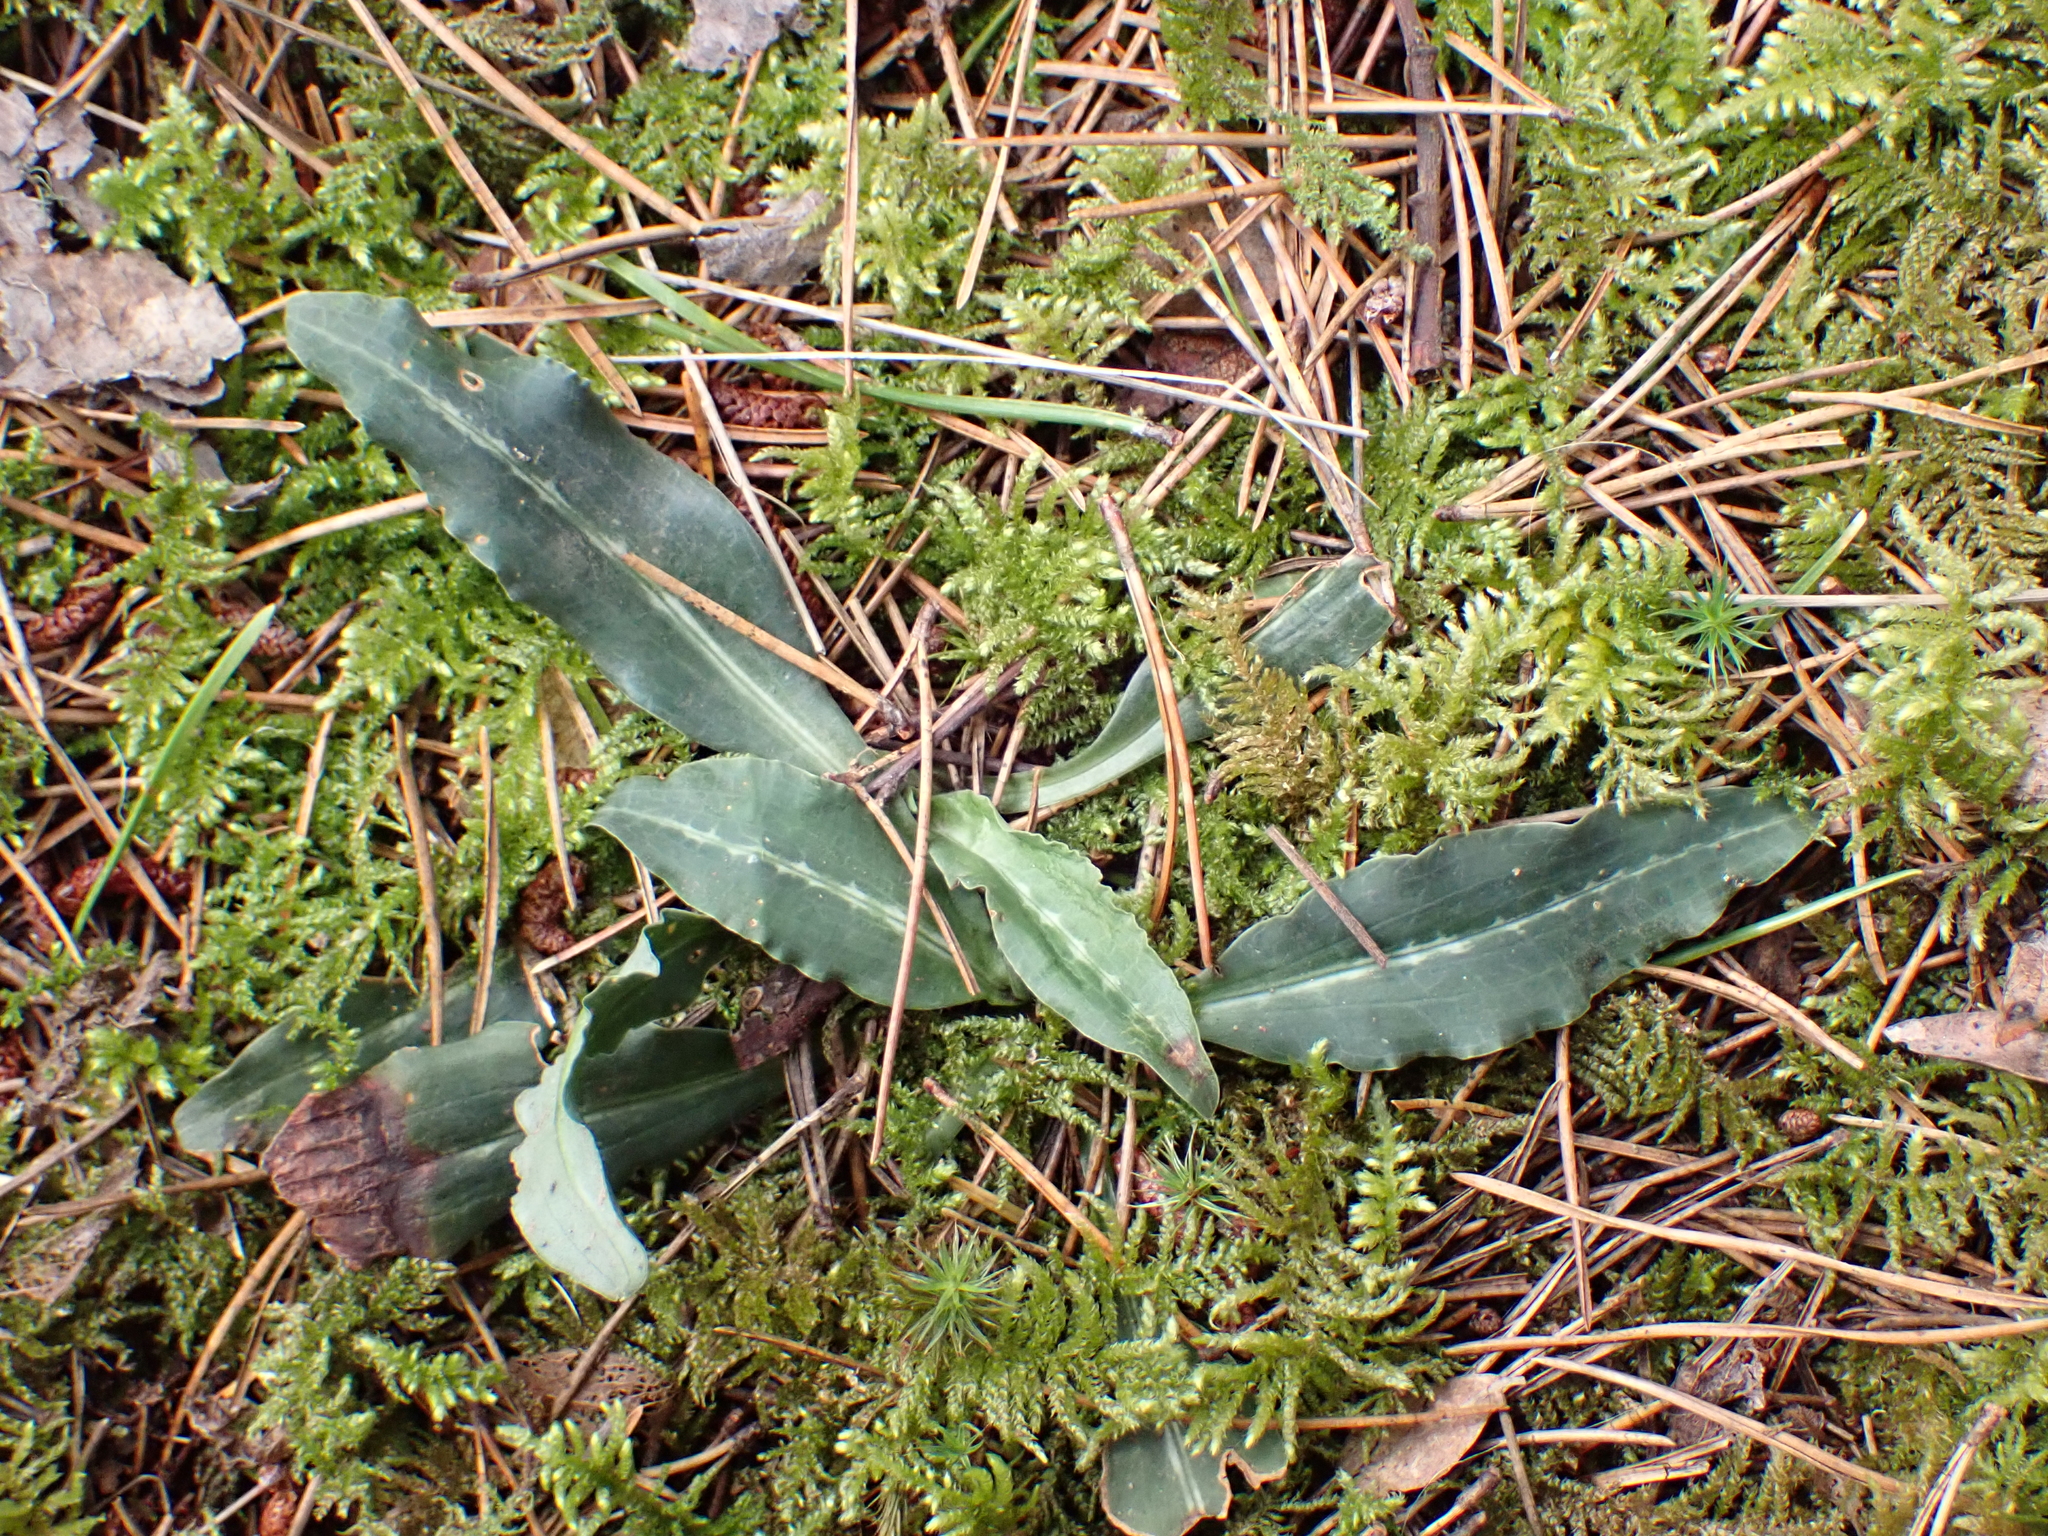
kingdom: Plantae
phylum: Tracheophyta
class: Liliopsida
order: Asparagales
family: Orchidaceae
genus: Goodyera
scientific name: Goodyera oblongifolia
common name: Giant rattlesnake-plantain
